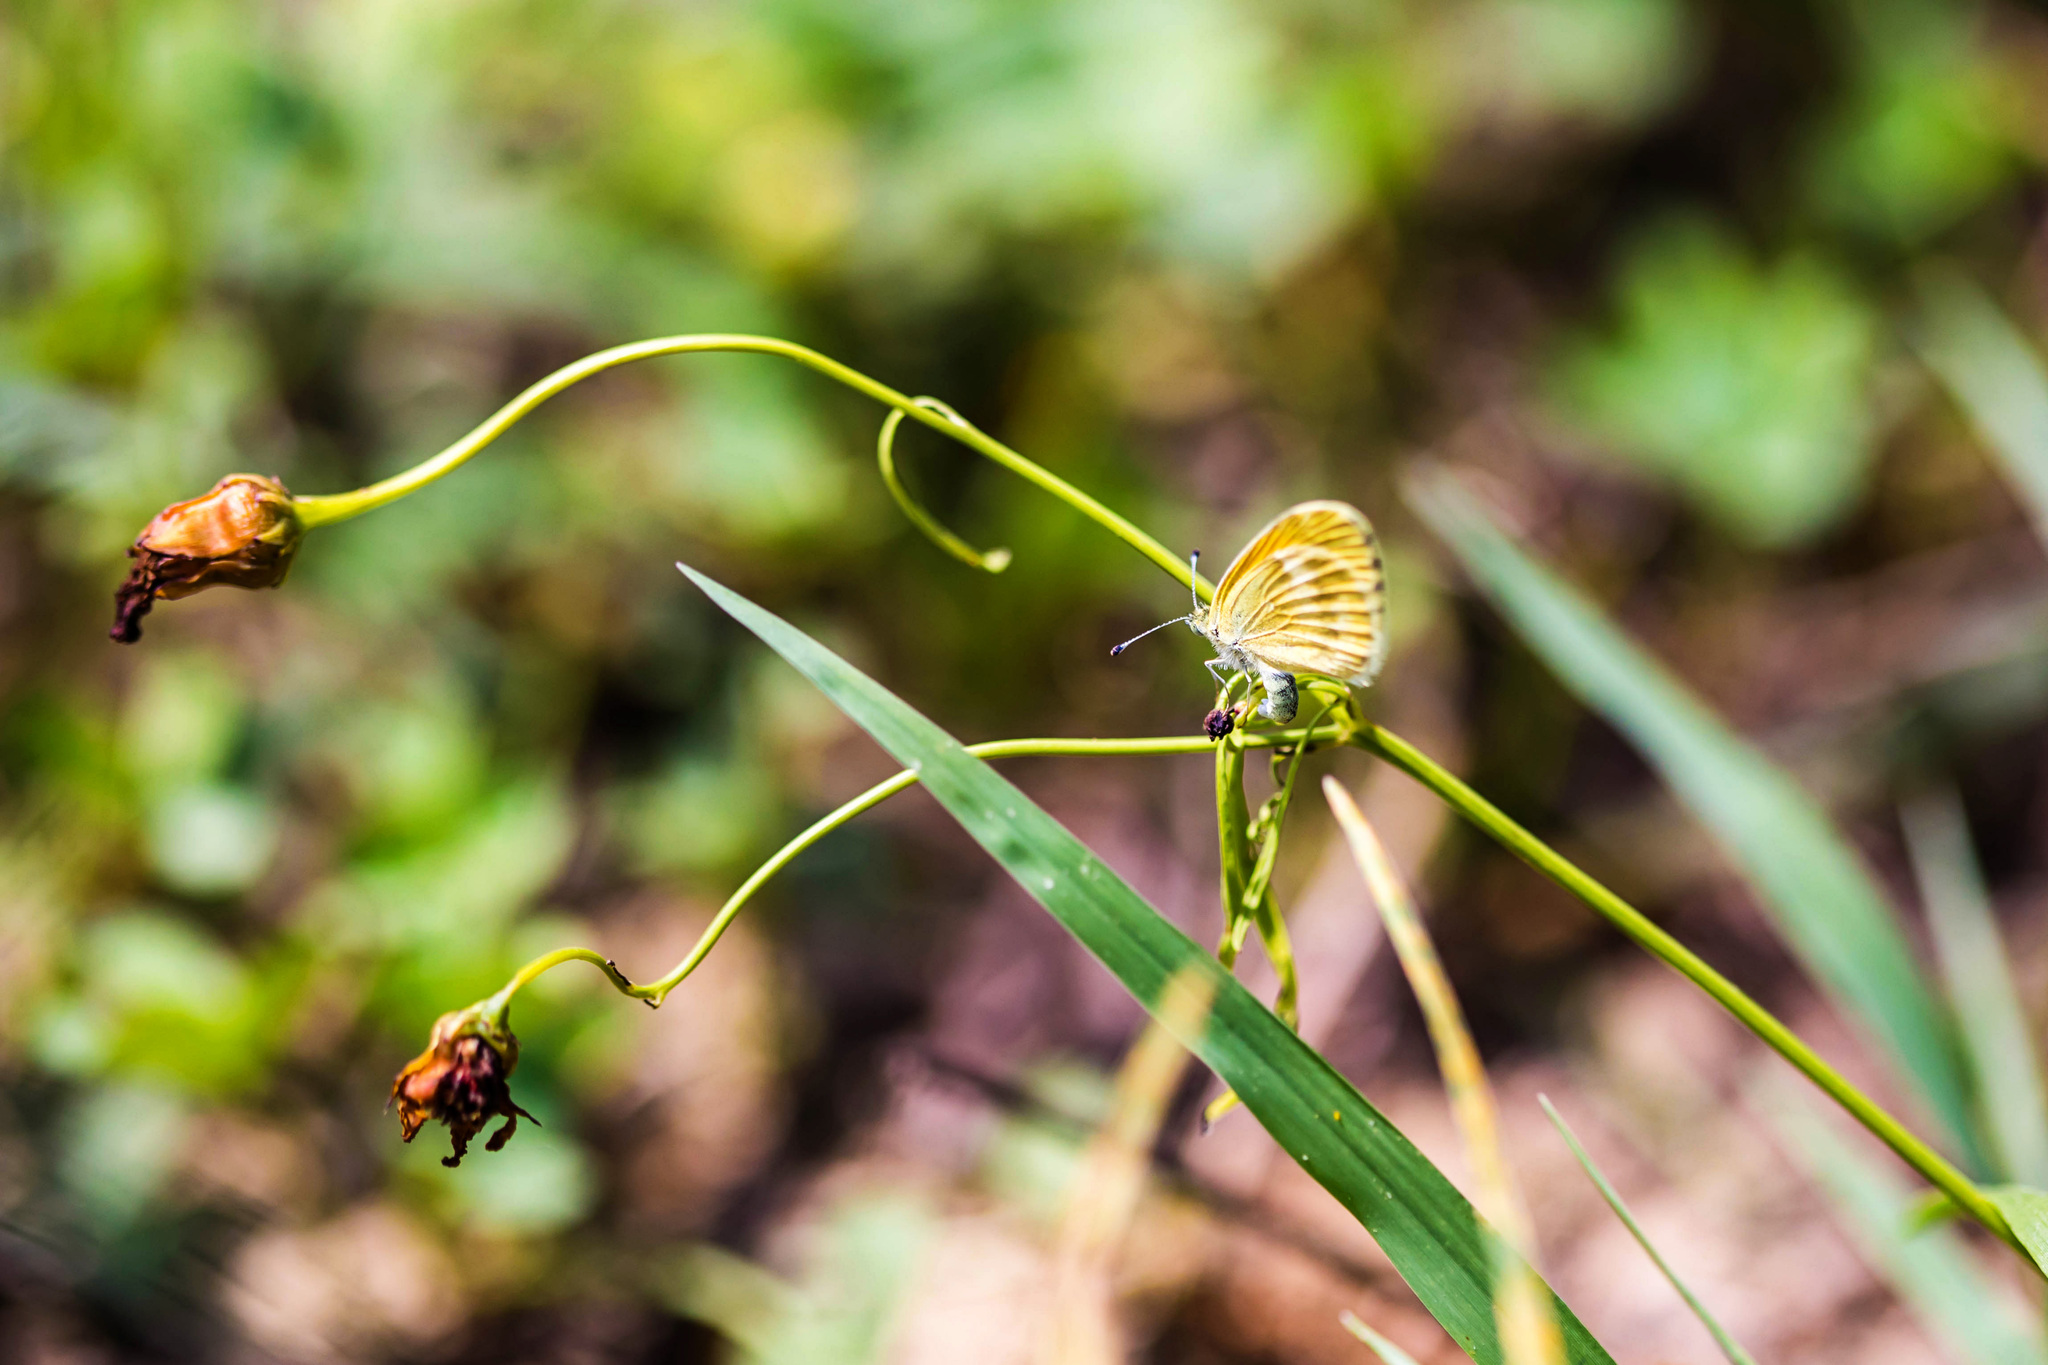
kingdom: Animalia
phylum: Arthropoda
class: Insecta
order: Lepidoptera
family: Pieridae
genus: Nathalis
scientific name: Nathalis iole
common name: Dainty sulphur
